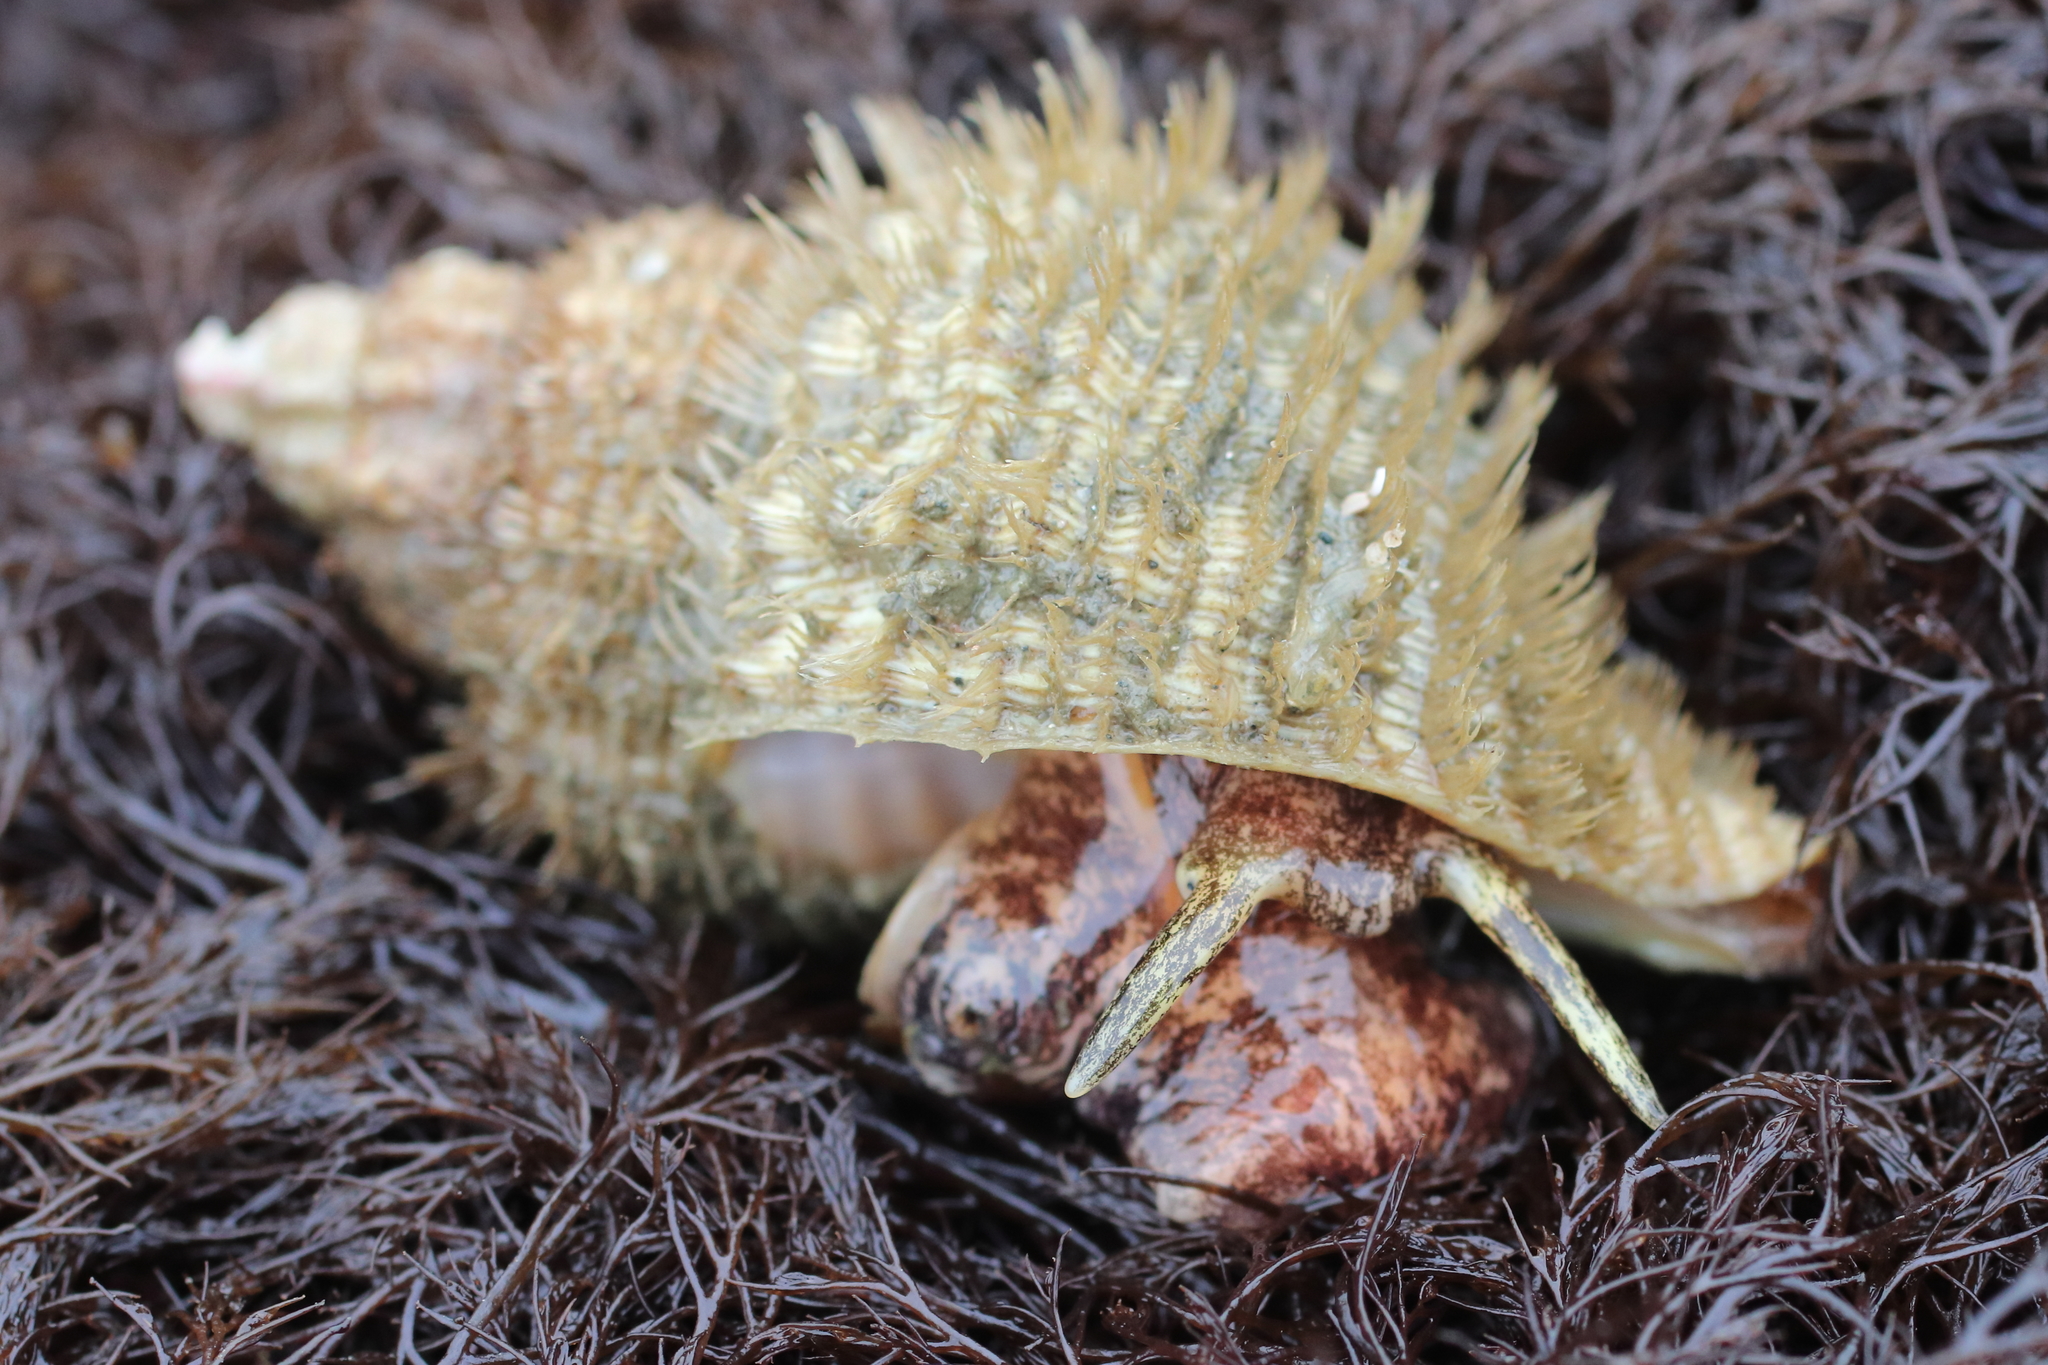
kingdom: Animalia
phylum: Mollusca
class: Gastropoda
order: Littorinimorpha
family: Cymatiidae
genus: Fusitriton
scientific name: Fusitriton oregonensis
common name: Oregon hairy triton
